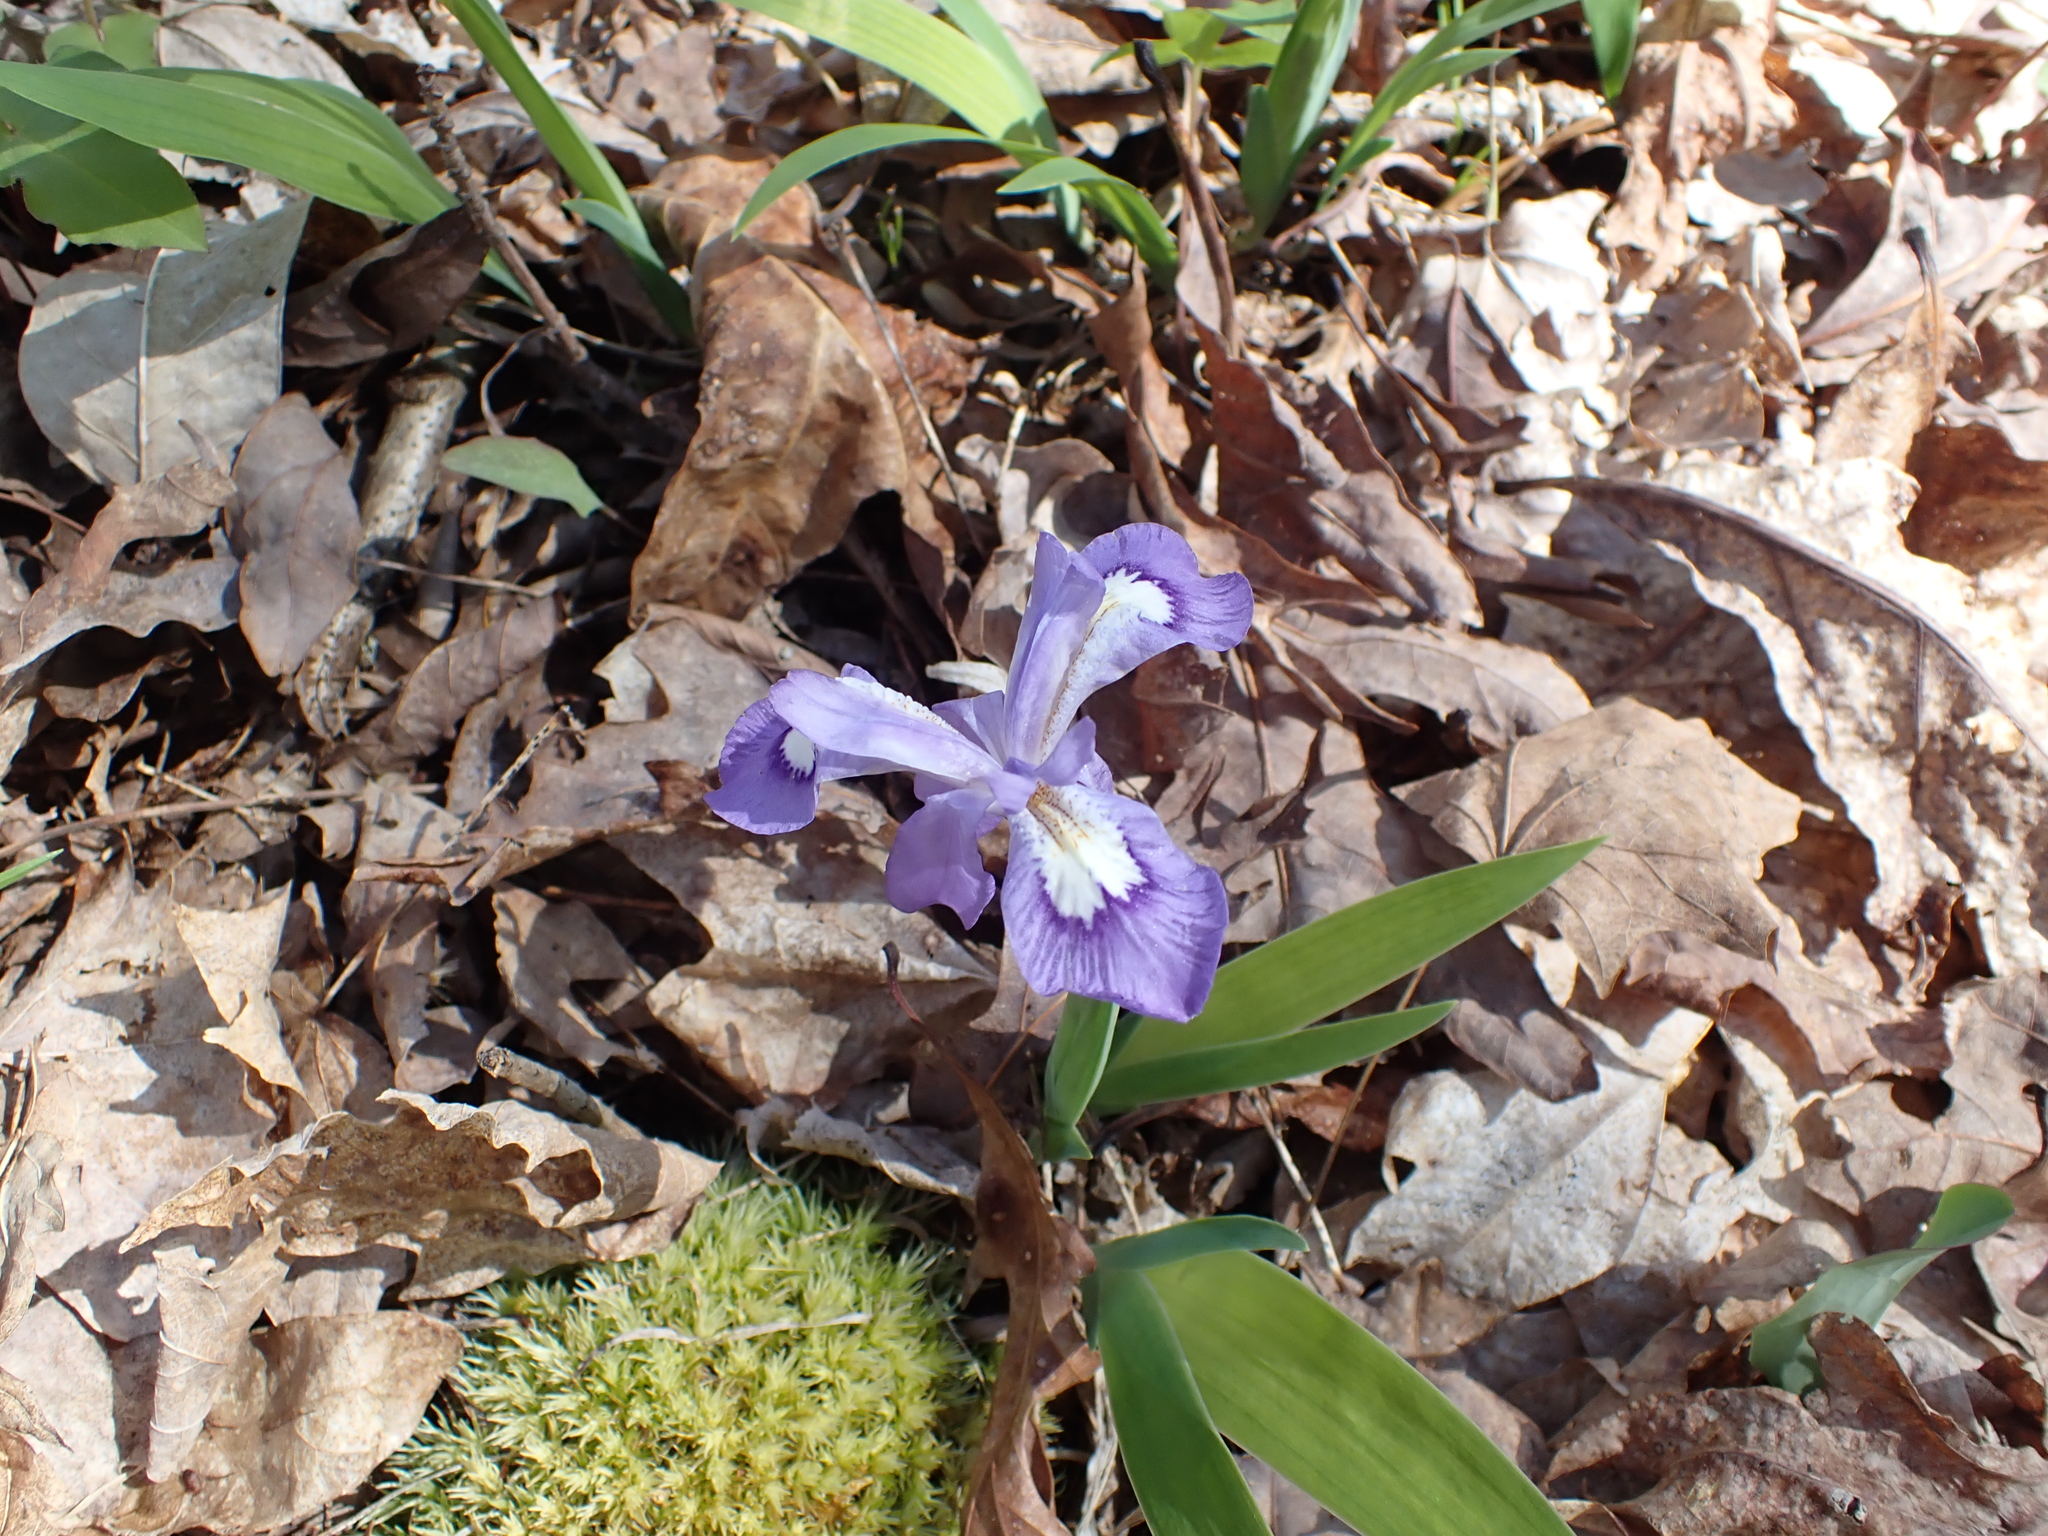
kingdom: Plantae
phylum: Tracheophyta
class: Liliopsida
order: Asparagales
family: Iridaceae
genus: Iris
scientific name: Iris cristata
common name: Crested iris
